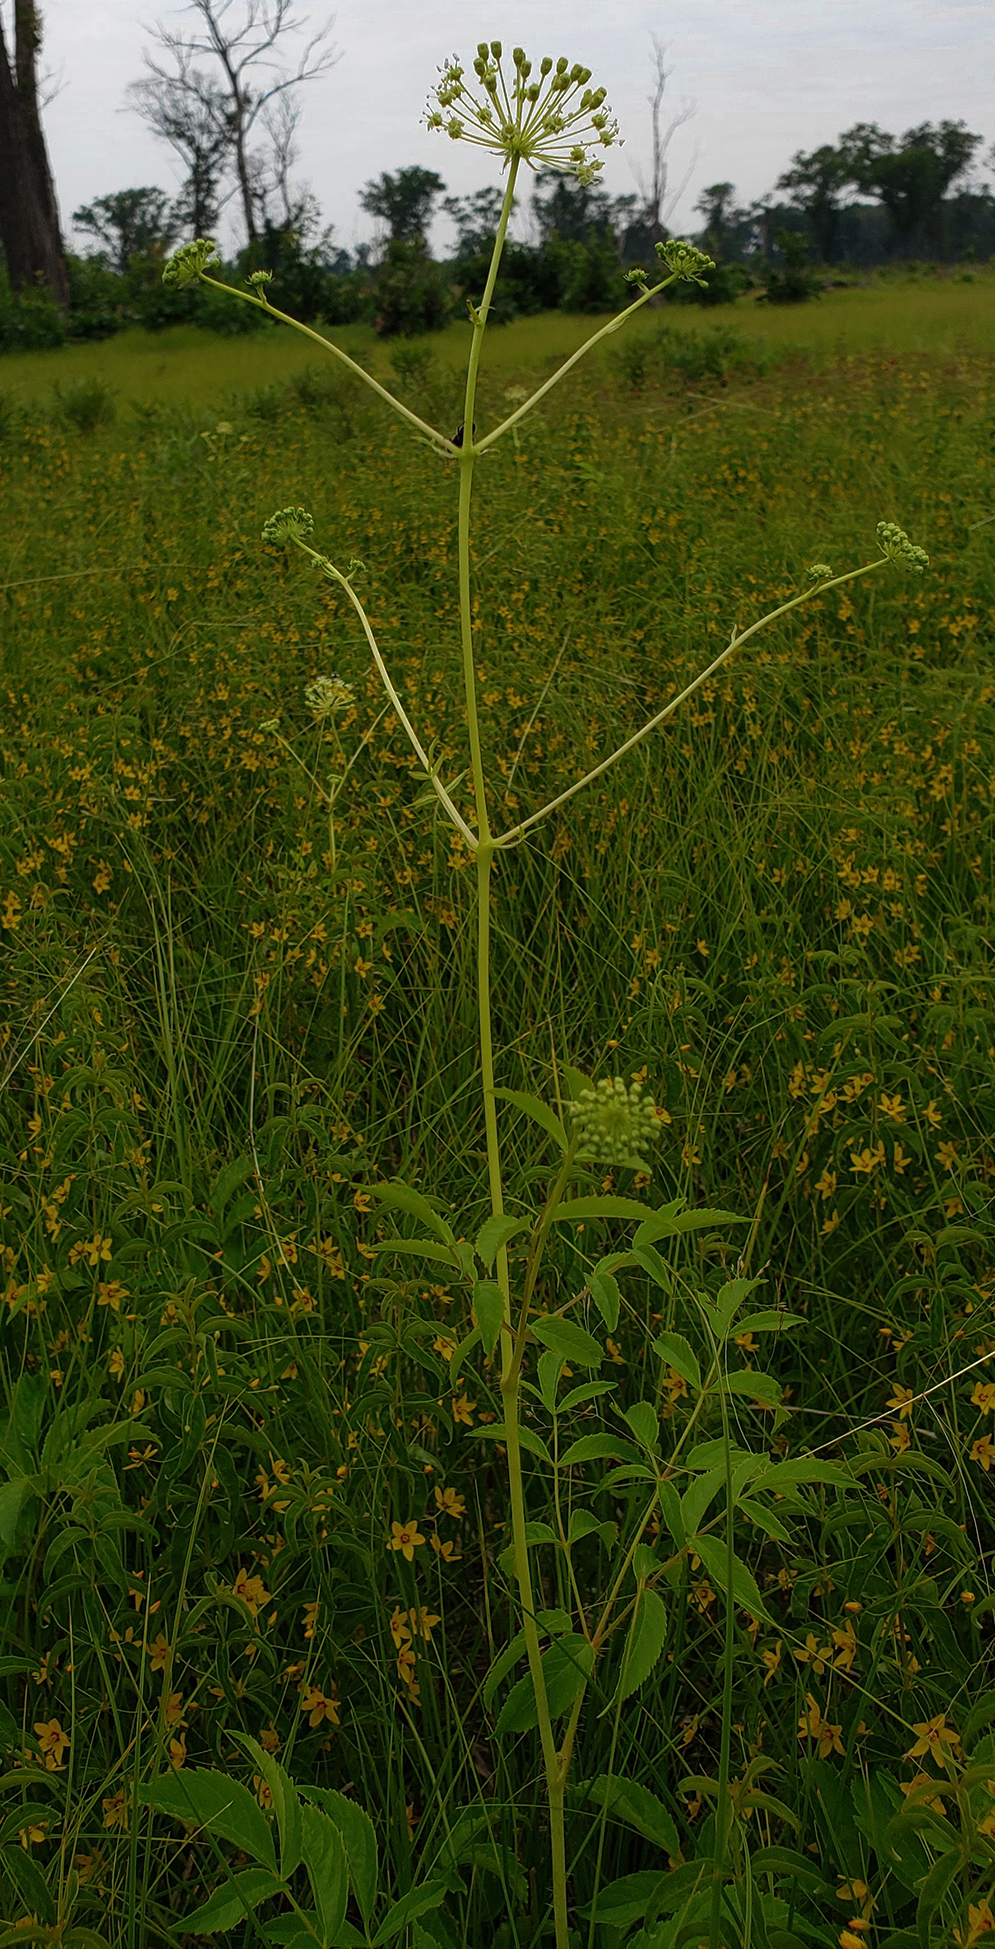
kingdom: Plantae
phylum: Tracheophyta
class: Magnoliopsida
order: Apiales
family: Araliaceae
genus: Aralia
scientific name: Aralia hispida
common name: Bristly sarsaparilla
